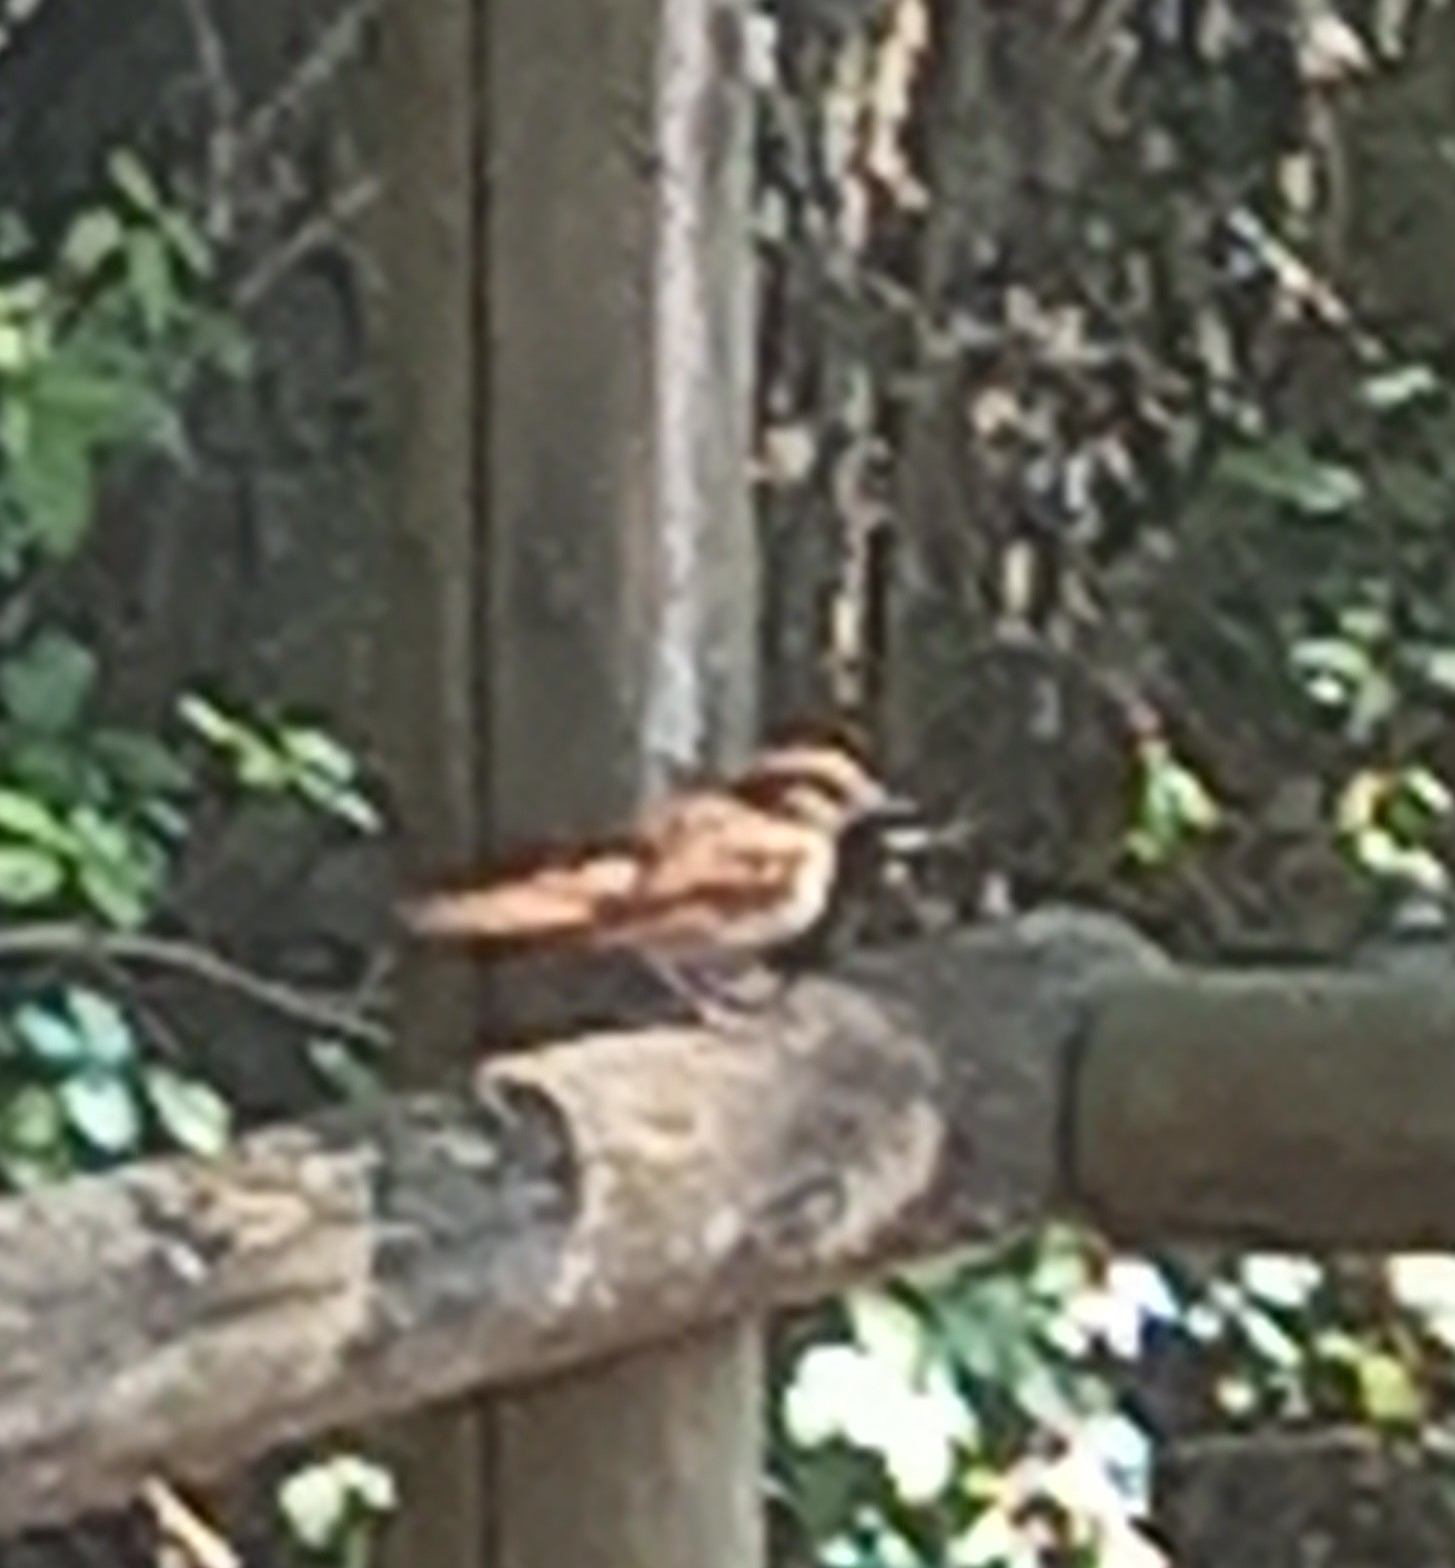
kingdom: Animalia
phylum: Chordata
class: Aves
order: Passeriformes
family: Muscicapidae
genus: Luscinia
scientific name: Luscinia megarhynchos
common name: Common nightingale
